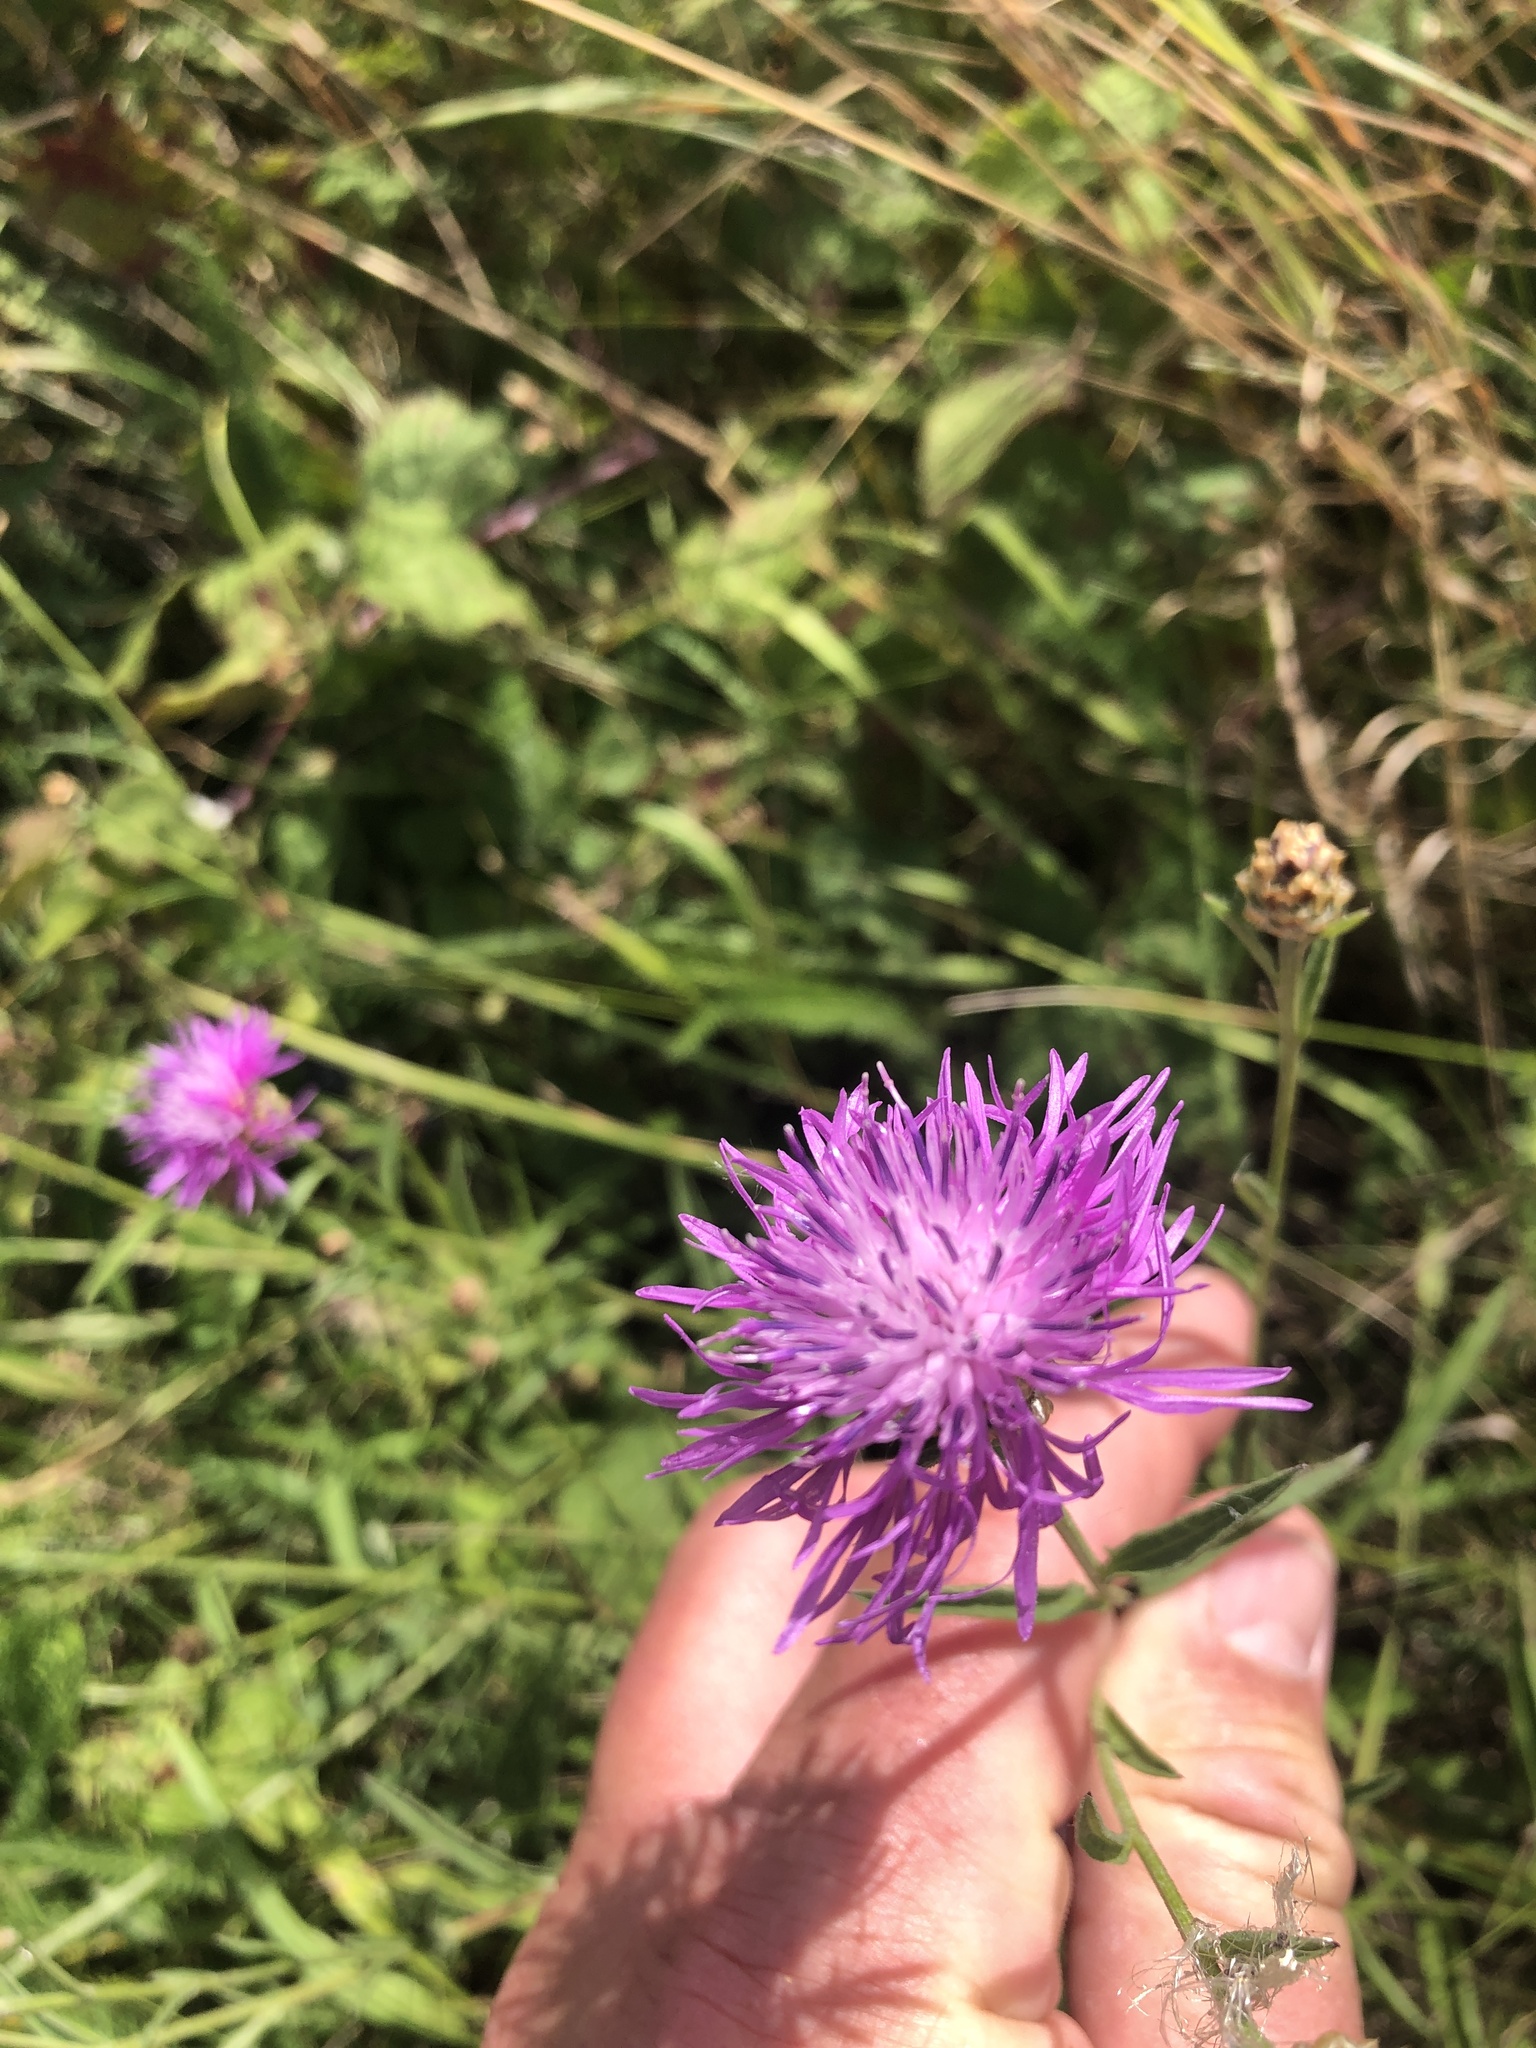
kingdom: Plantae
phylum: Tracheophyta
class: Magnoliopsida
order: Asterales
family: Asteraceae
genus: Centaurea
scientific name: Centaurea jacea
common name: Brown knapweed
